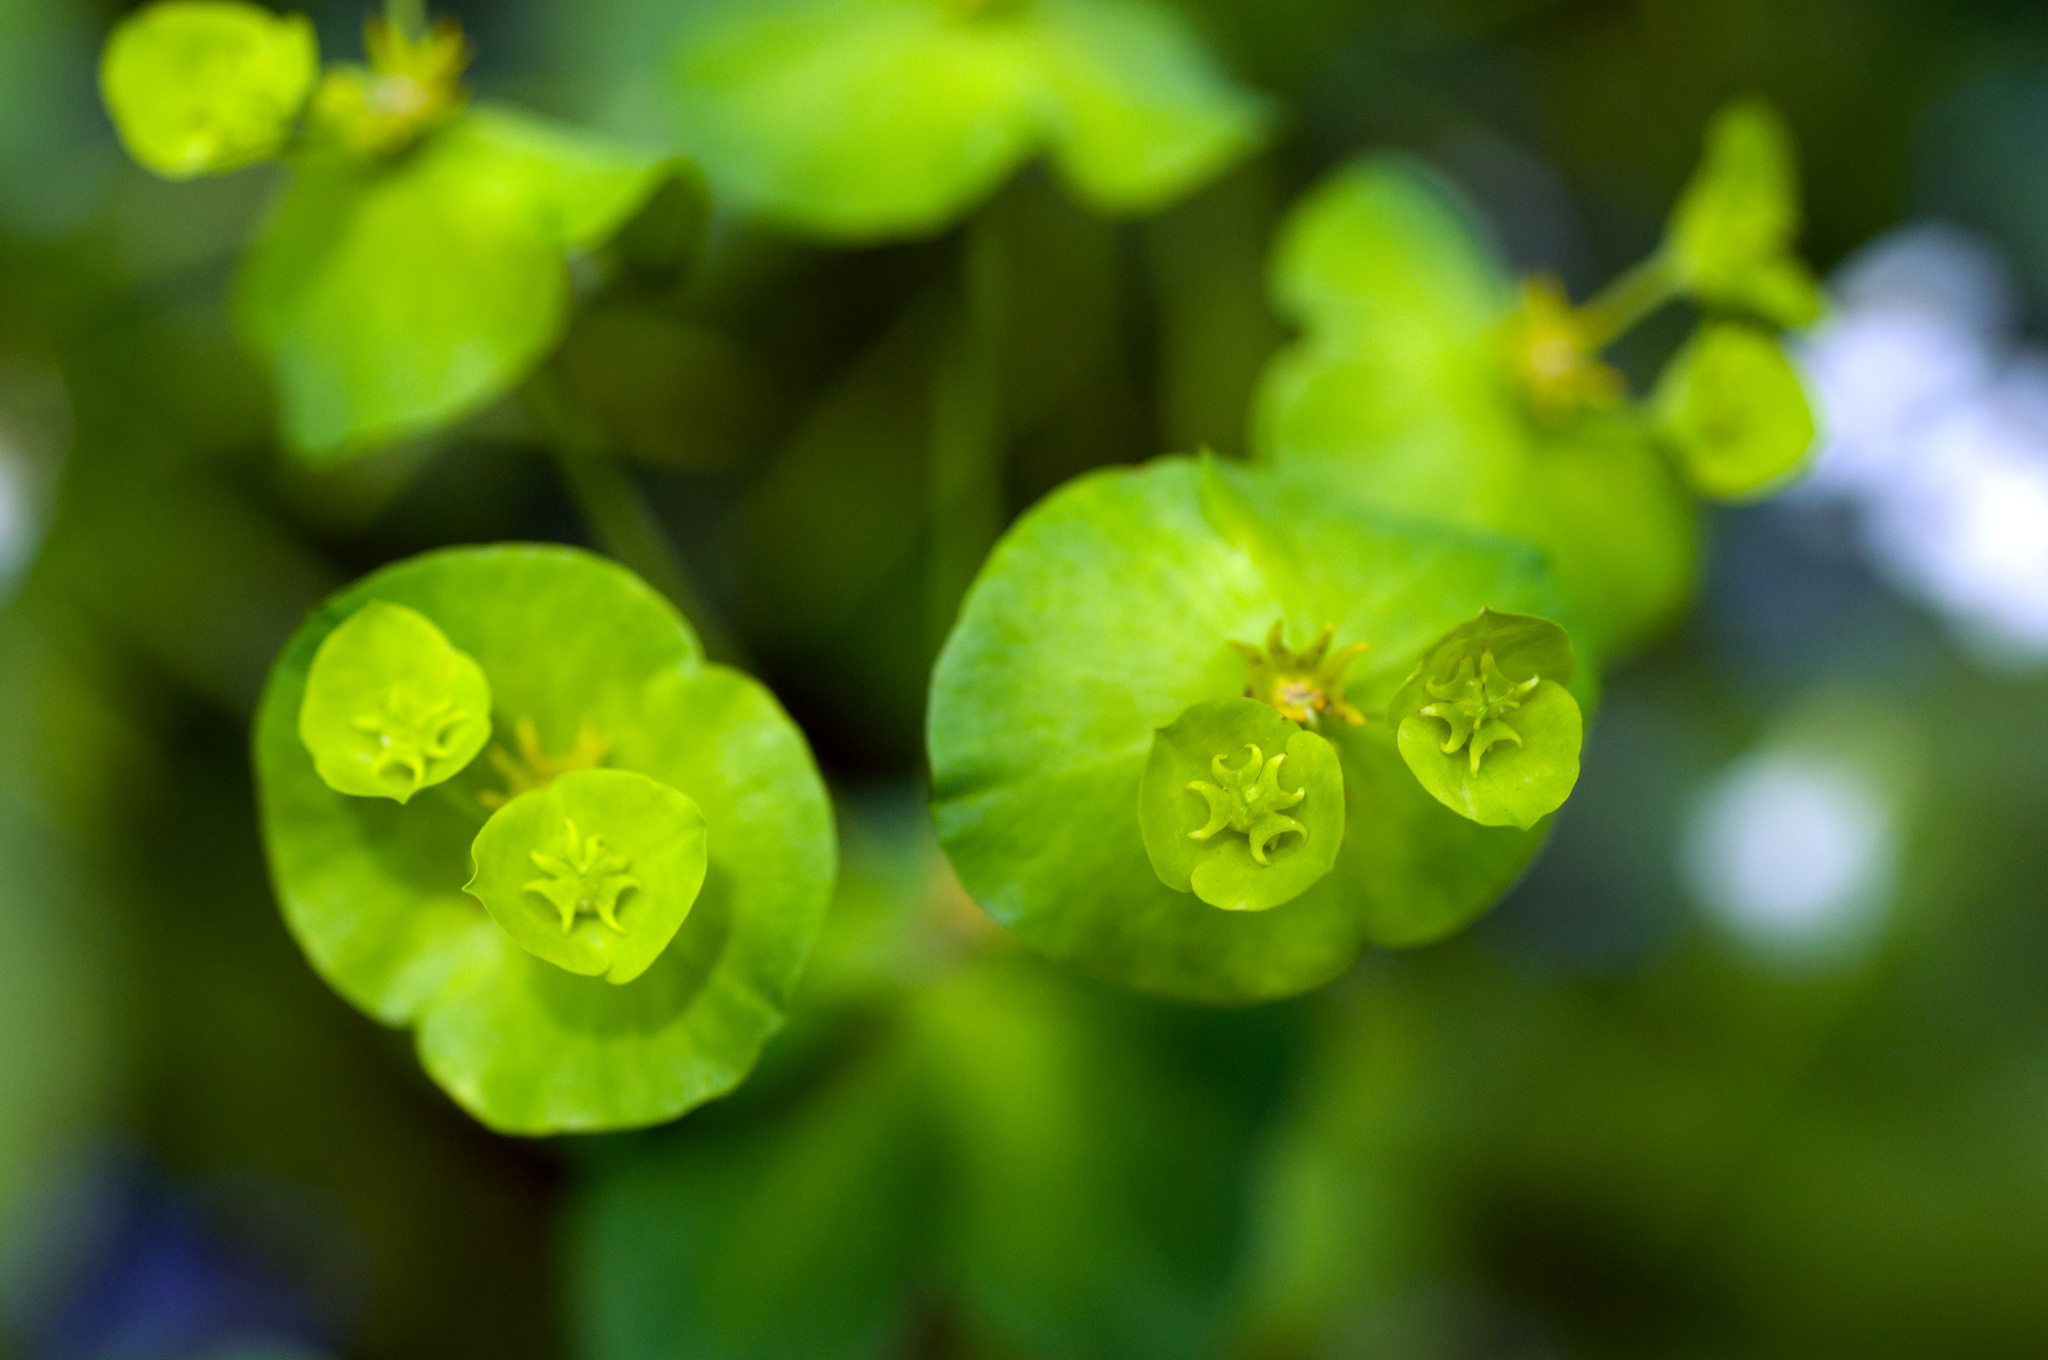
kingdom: Plantae
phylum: Tracheophyta
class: Magnoliopsida
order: Malpighiales
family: Euphorbiaceae
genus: Euphorbia
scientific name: Euphorbia amygdaloides
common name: Wood spurge
